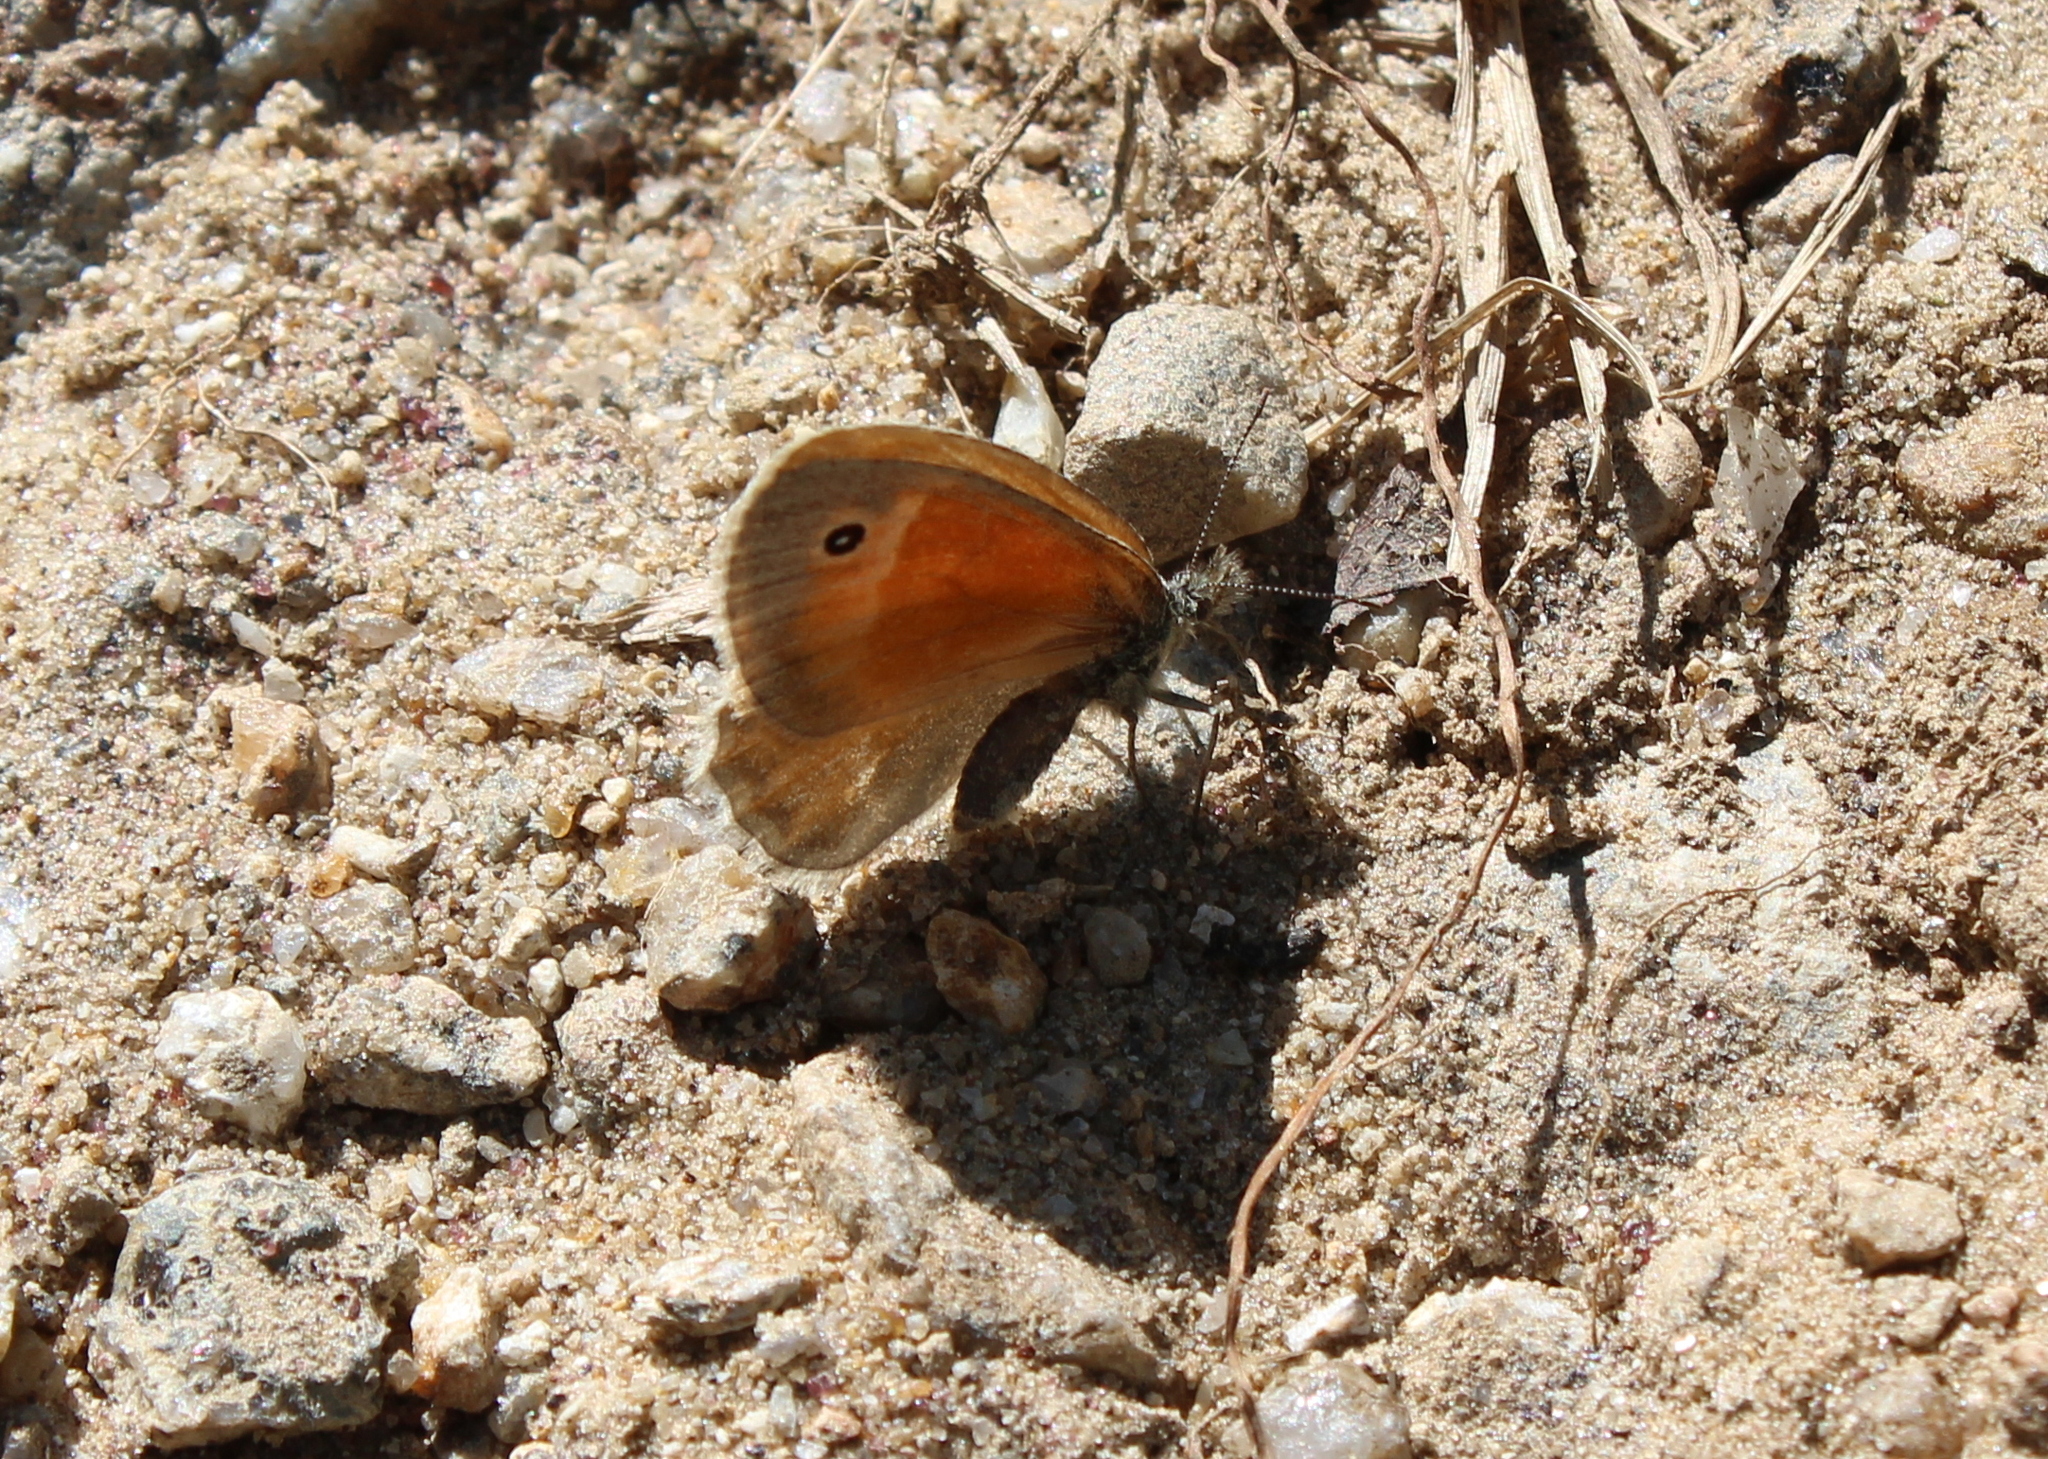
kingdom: Animalia
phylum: Arthropoda
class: Insecta
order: Lepidoptera
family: Nymphalidae
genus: Coenonympha
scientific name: Coenonympha california
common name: Common ringlet
